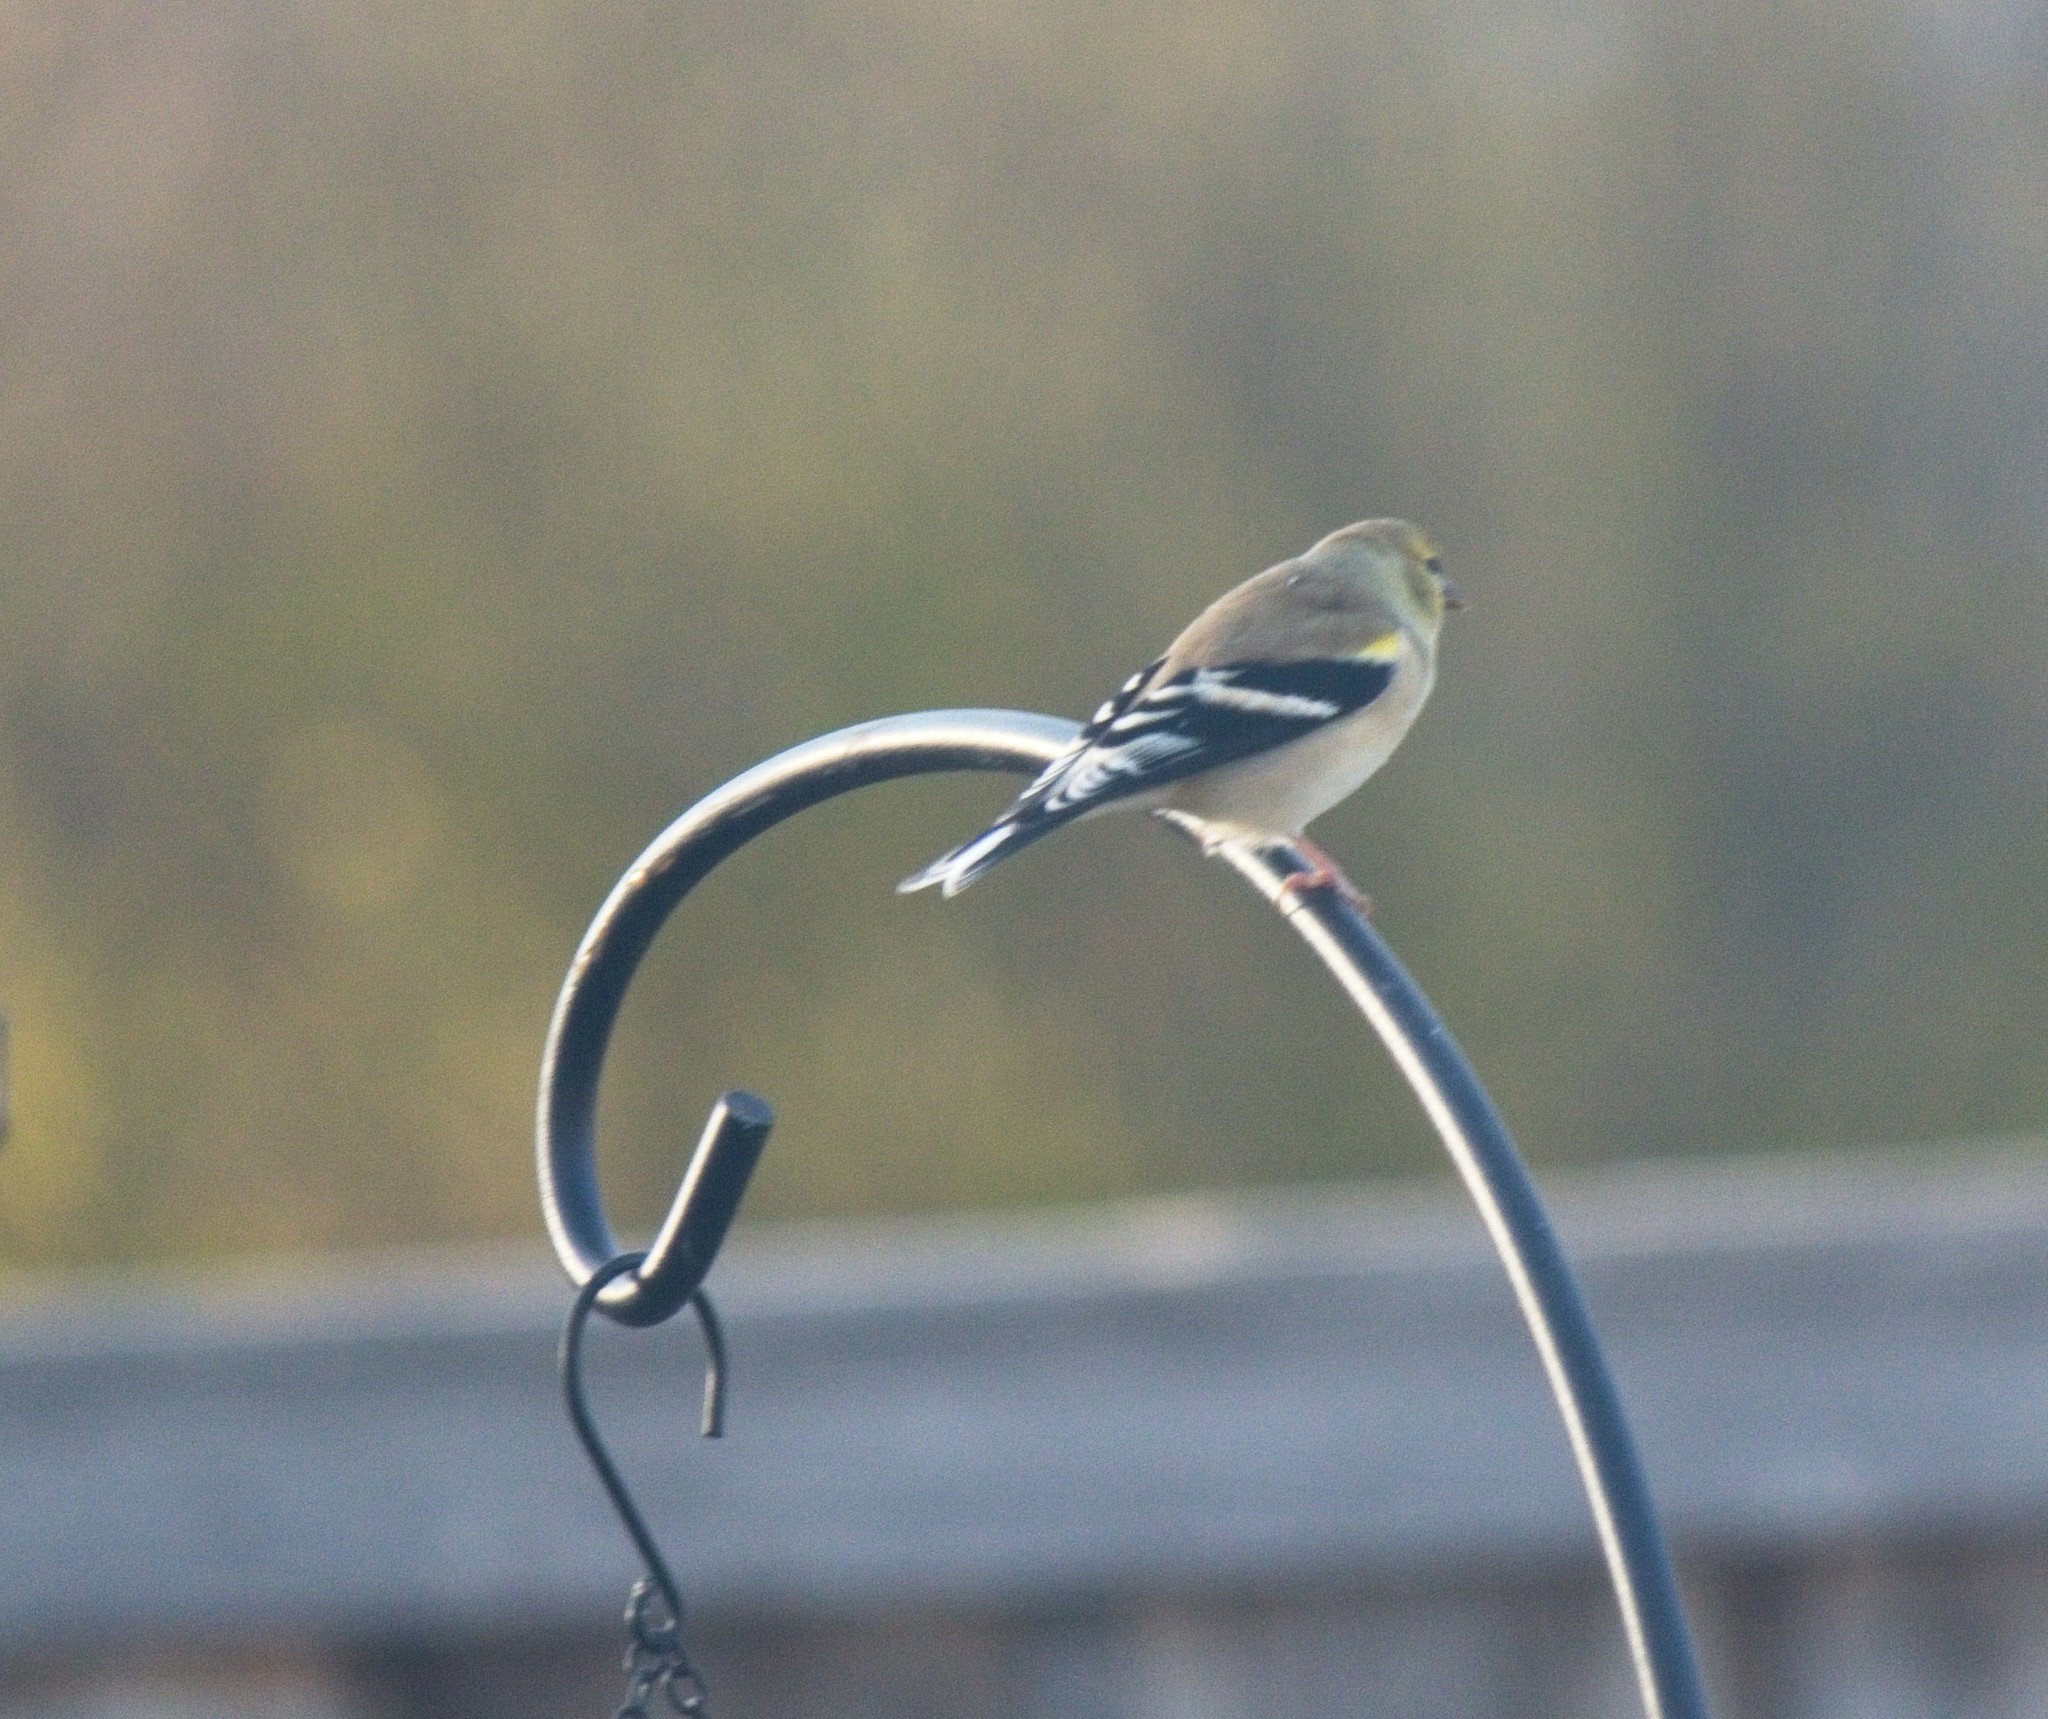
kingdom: Animalia
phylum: Chordata
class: Aves
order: Passeriformes
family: Fringillidae
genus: Spinus
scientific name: Spinus tristis
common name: American goldfinch
